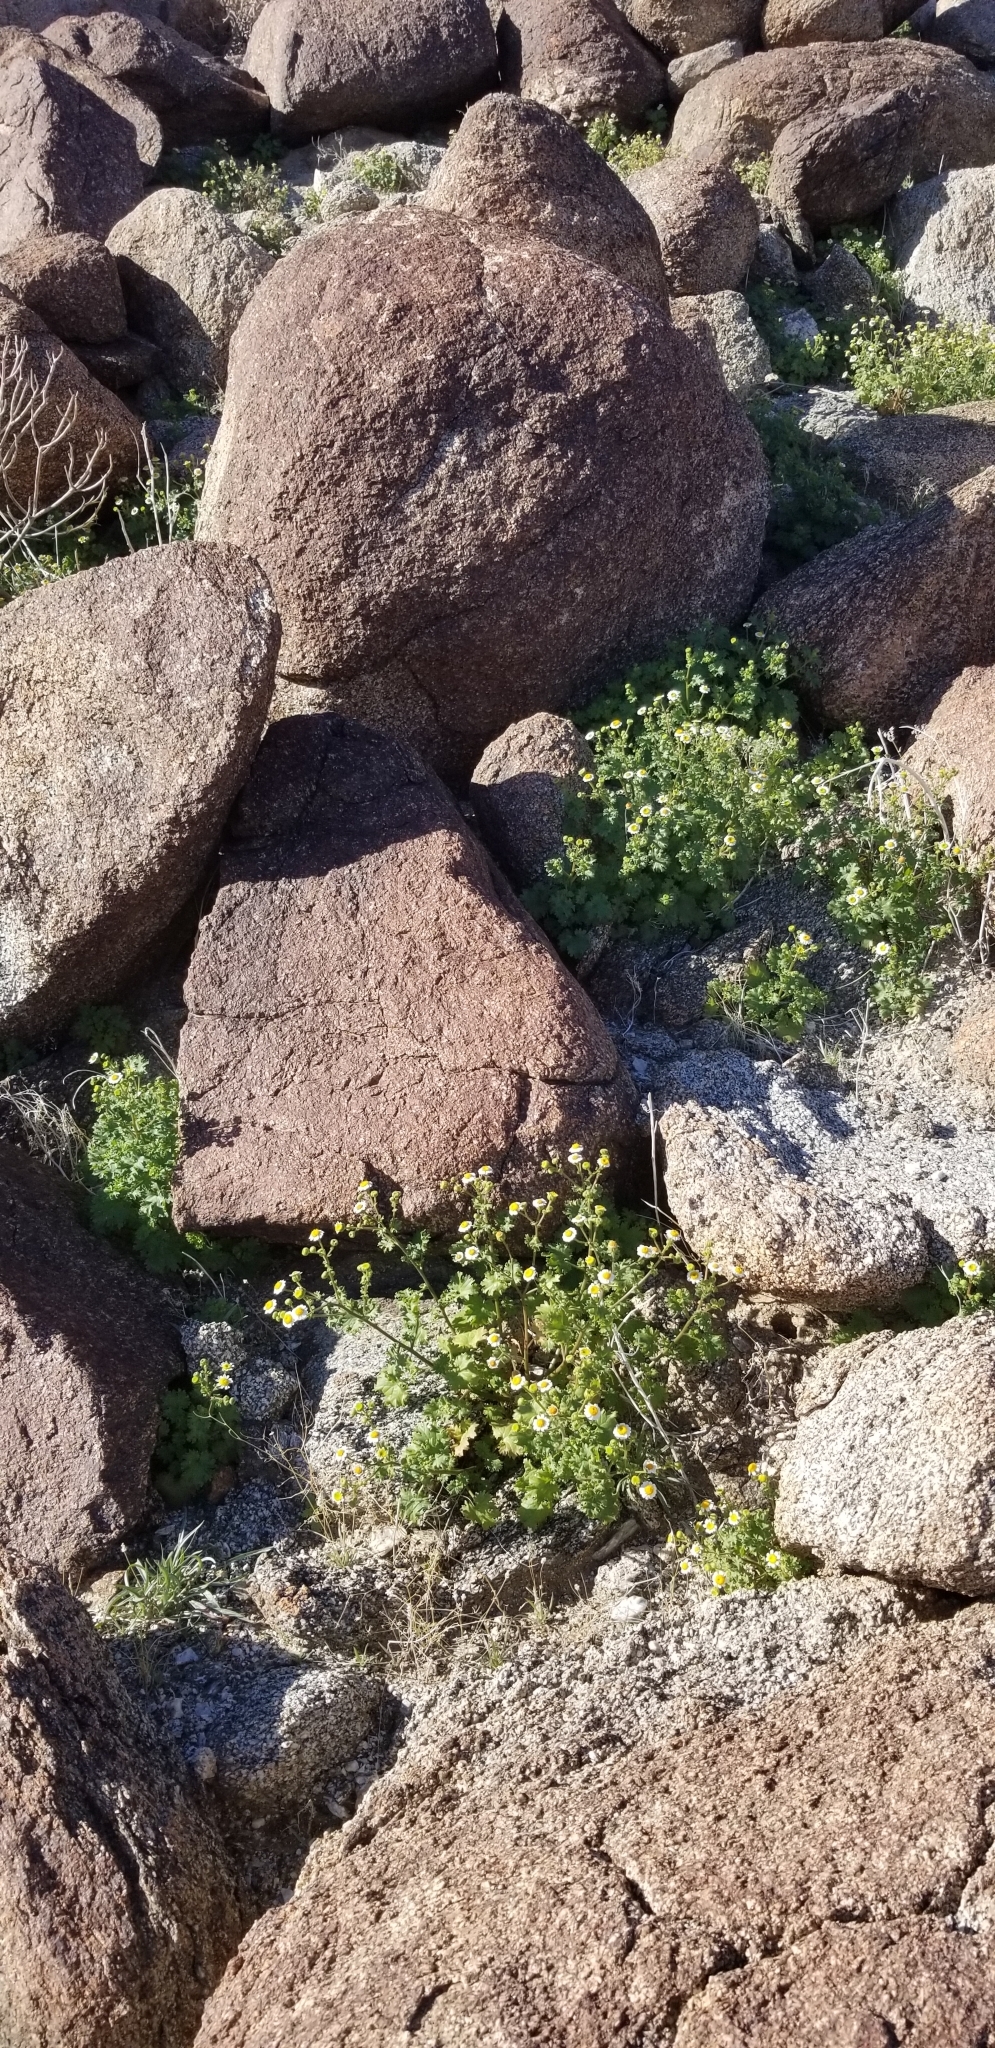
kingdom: Plantae
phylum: Tracheophyta
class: Magnoliopsida
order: Asterales
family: Asteraceae
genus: Laphamia
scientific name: Laphamia emoryi
